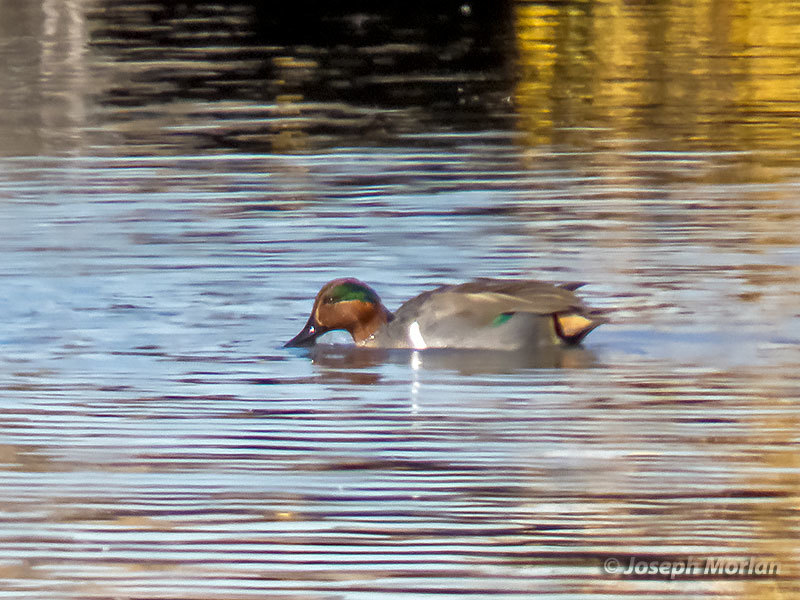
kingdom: Animalia
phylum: Chordata
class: Aves
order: Anseriformes
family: Anatidae
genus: Anas
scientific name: Anas crecca
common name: Eurasian teal
